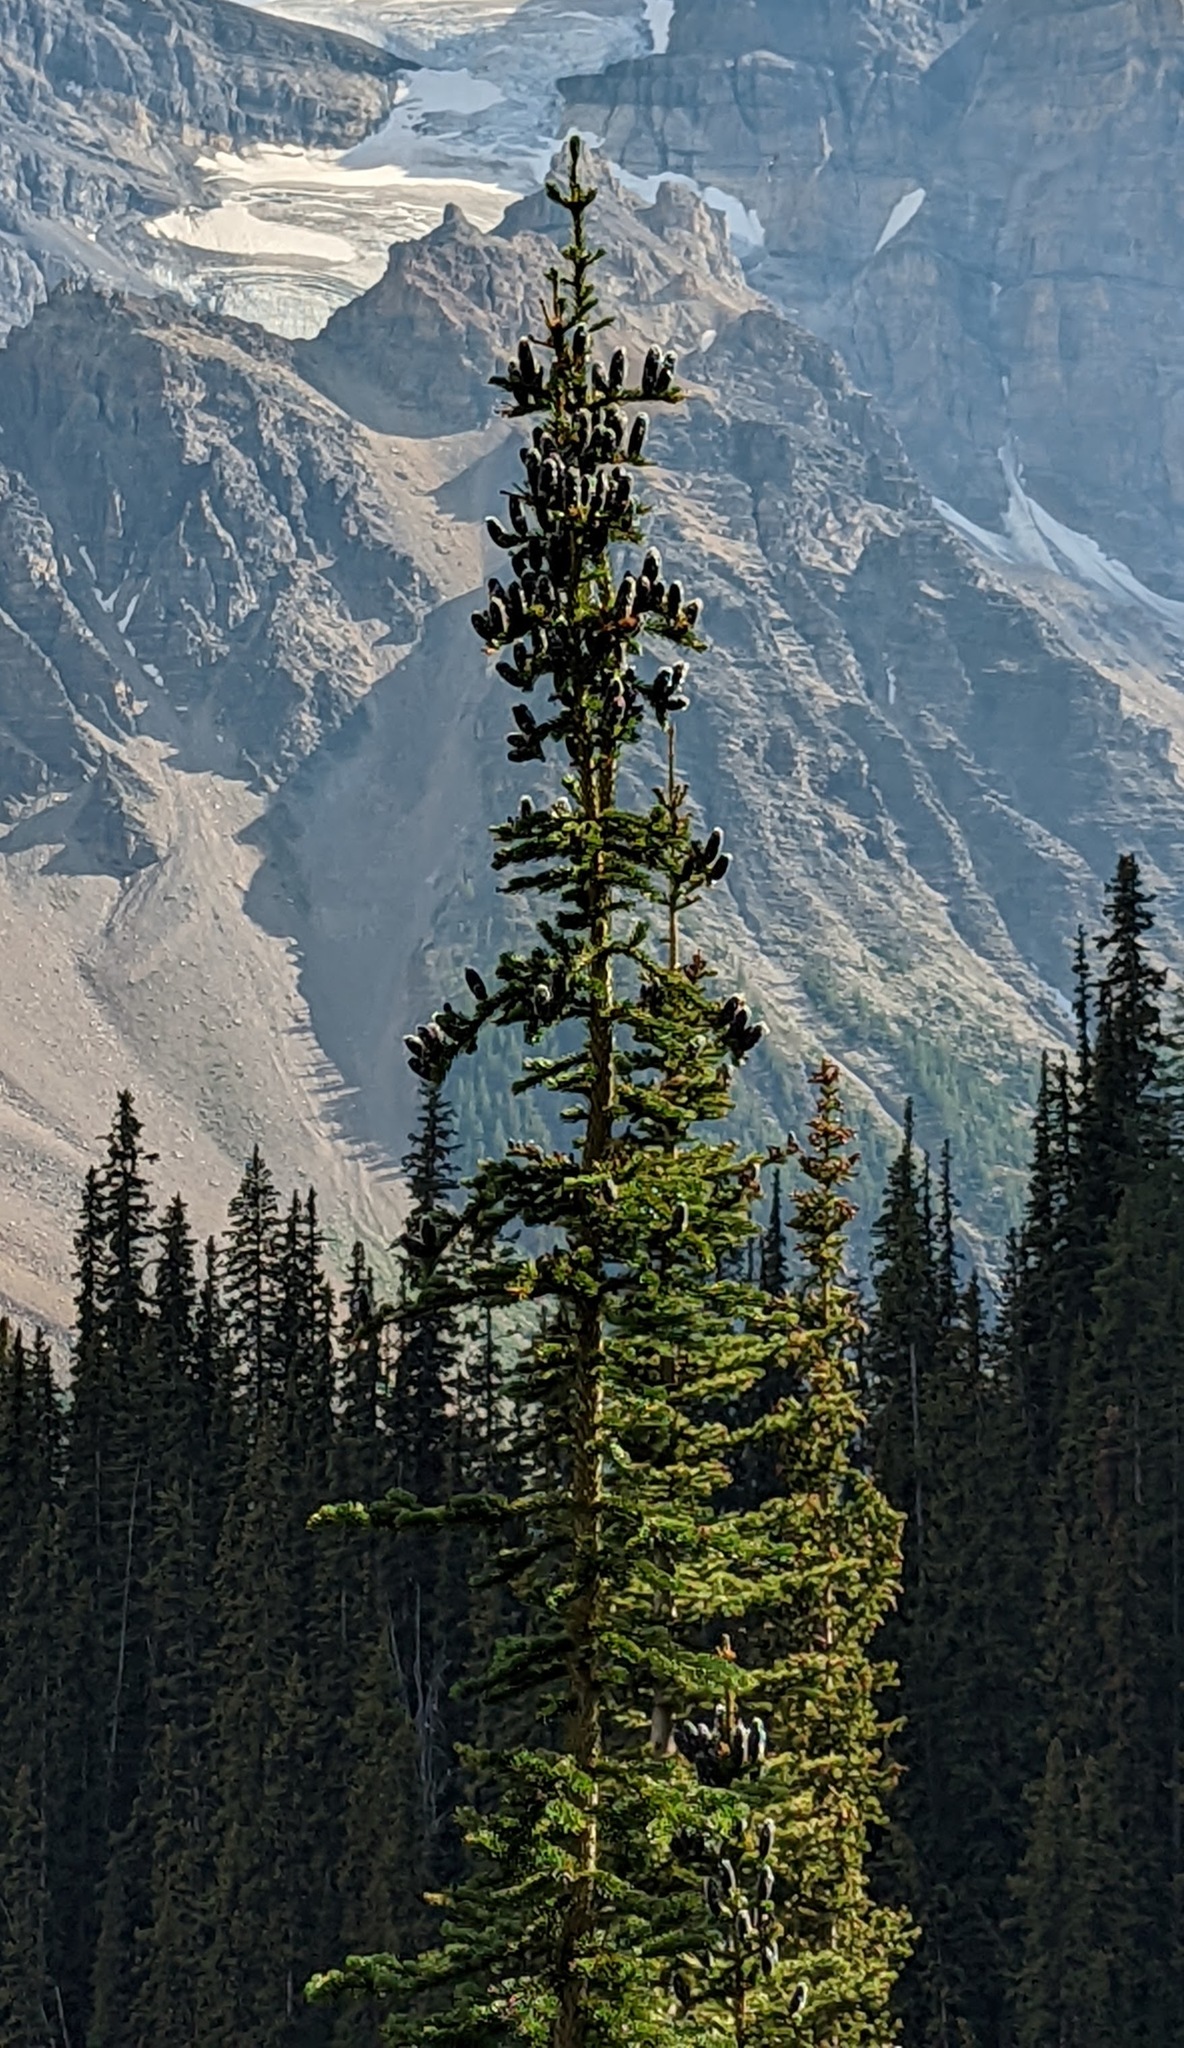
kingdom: Plantae
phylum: Tracheophyta
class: Pinopsida
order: Pinales
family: Pinaceae
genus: Abies
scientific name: Abies lasiocarpa
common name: Subalpine fir
